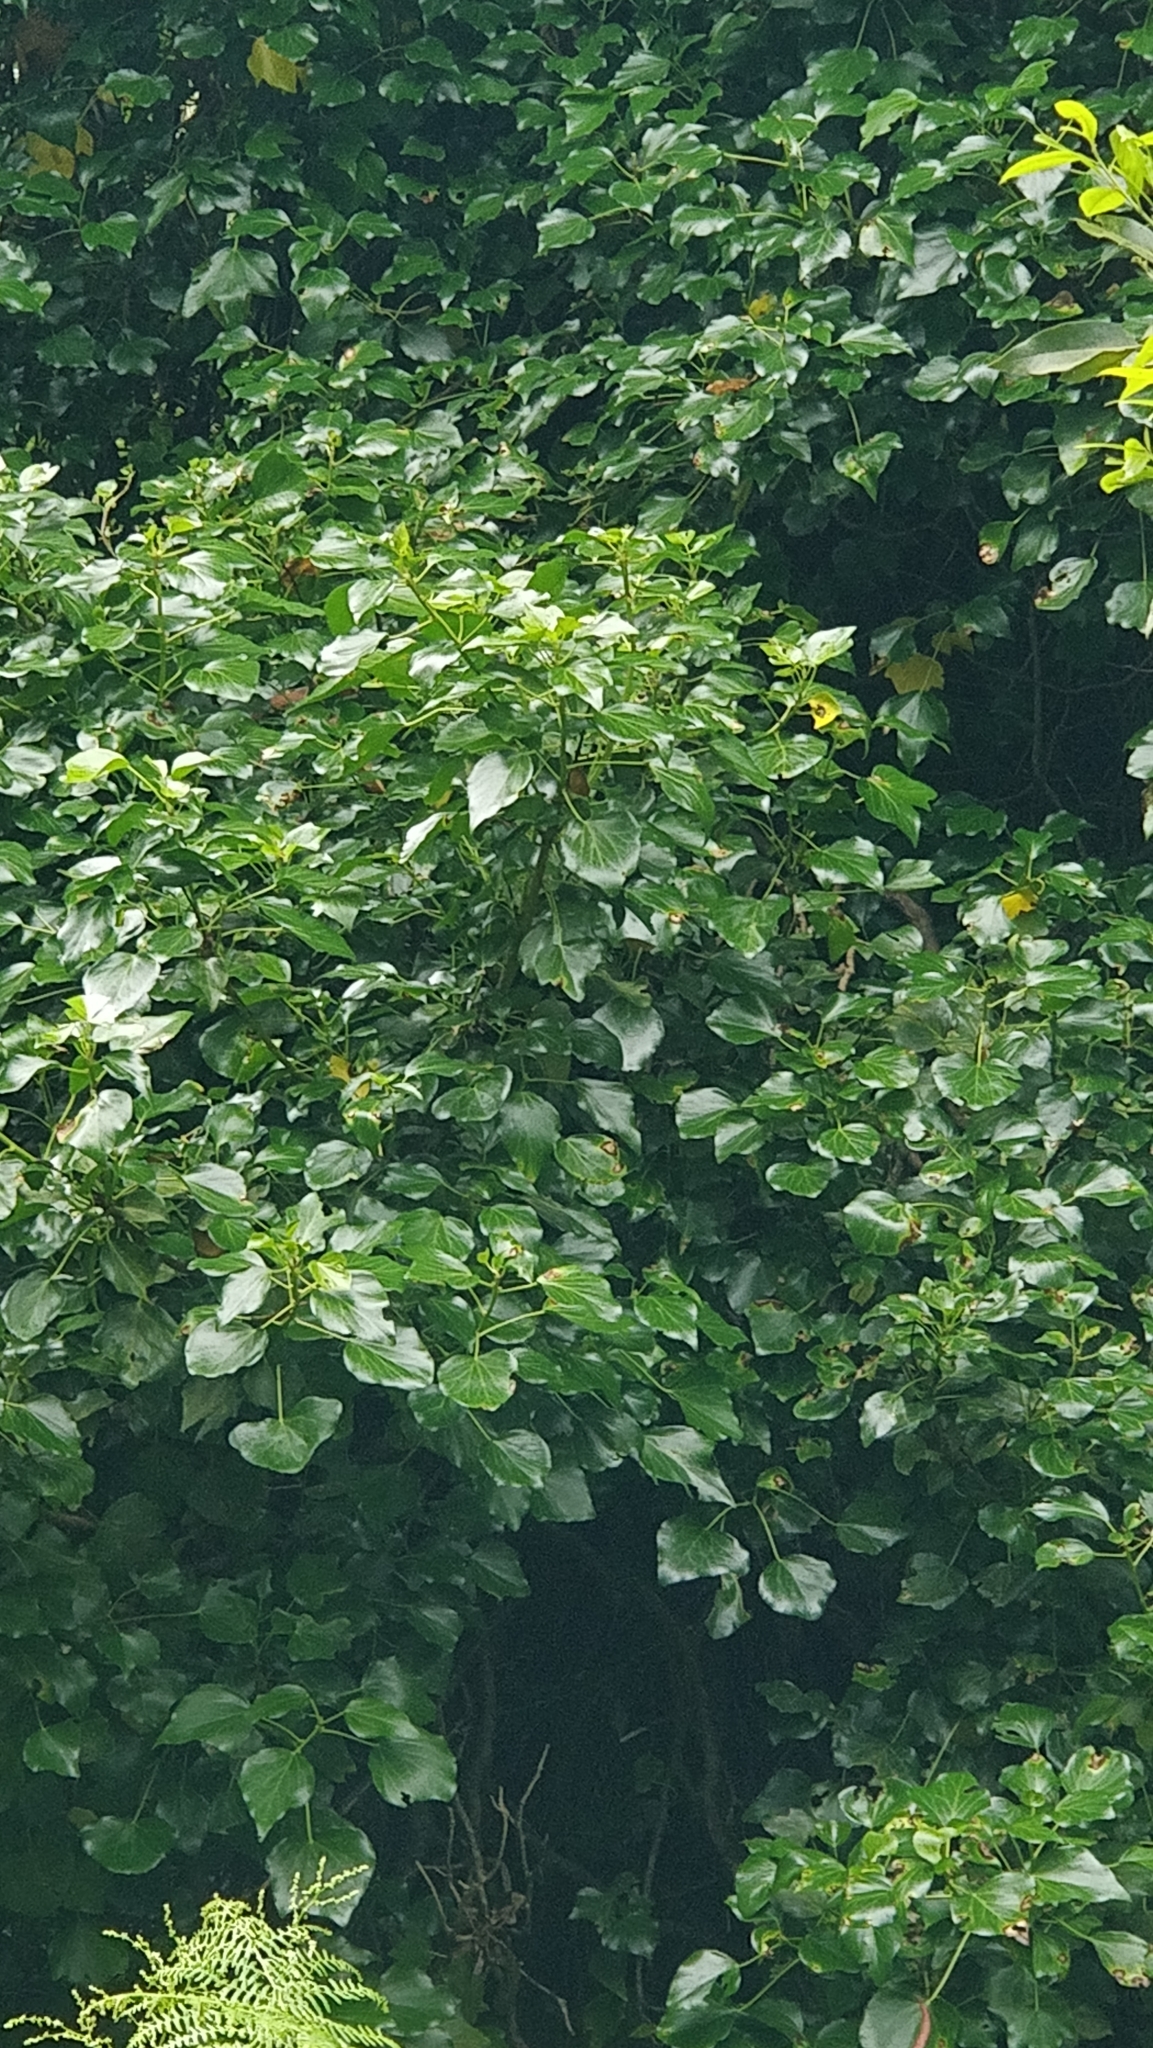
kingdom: Plantae
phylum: Tracheophyta
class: Magnoliopsida
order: Apiales
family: Araliaceae
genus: Hedera
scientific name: Hedera maderensis
